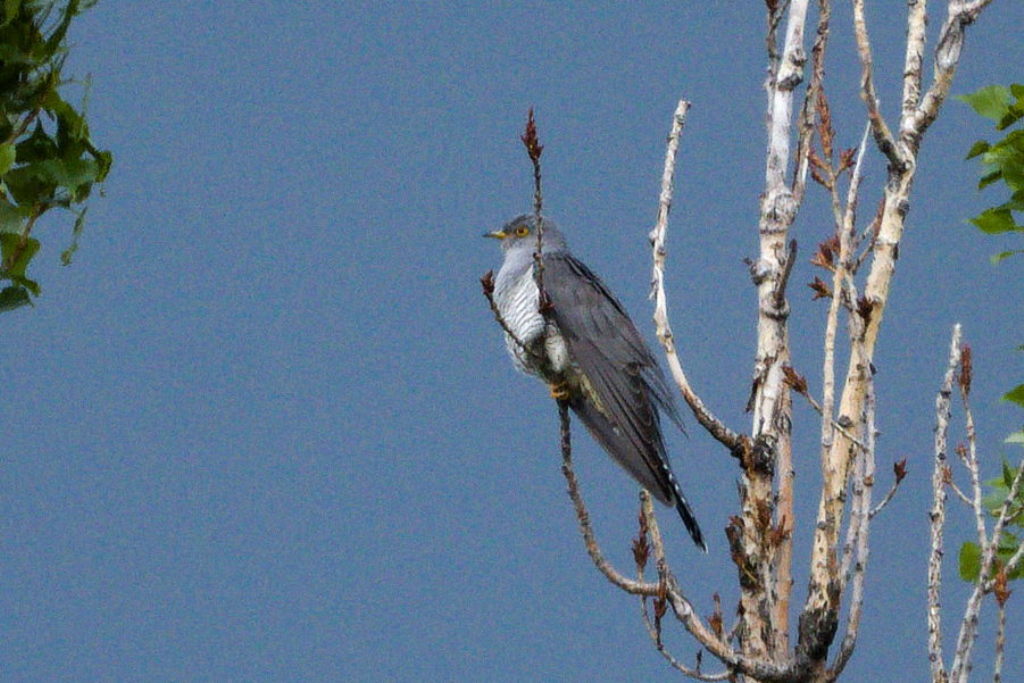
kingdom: Animalia
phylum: Chordata
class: Aves
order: Cuculiformes
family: Cuculidae
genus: Cuculus
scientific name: Cuculus canorus
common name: Common cuckoo
